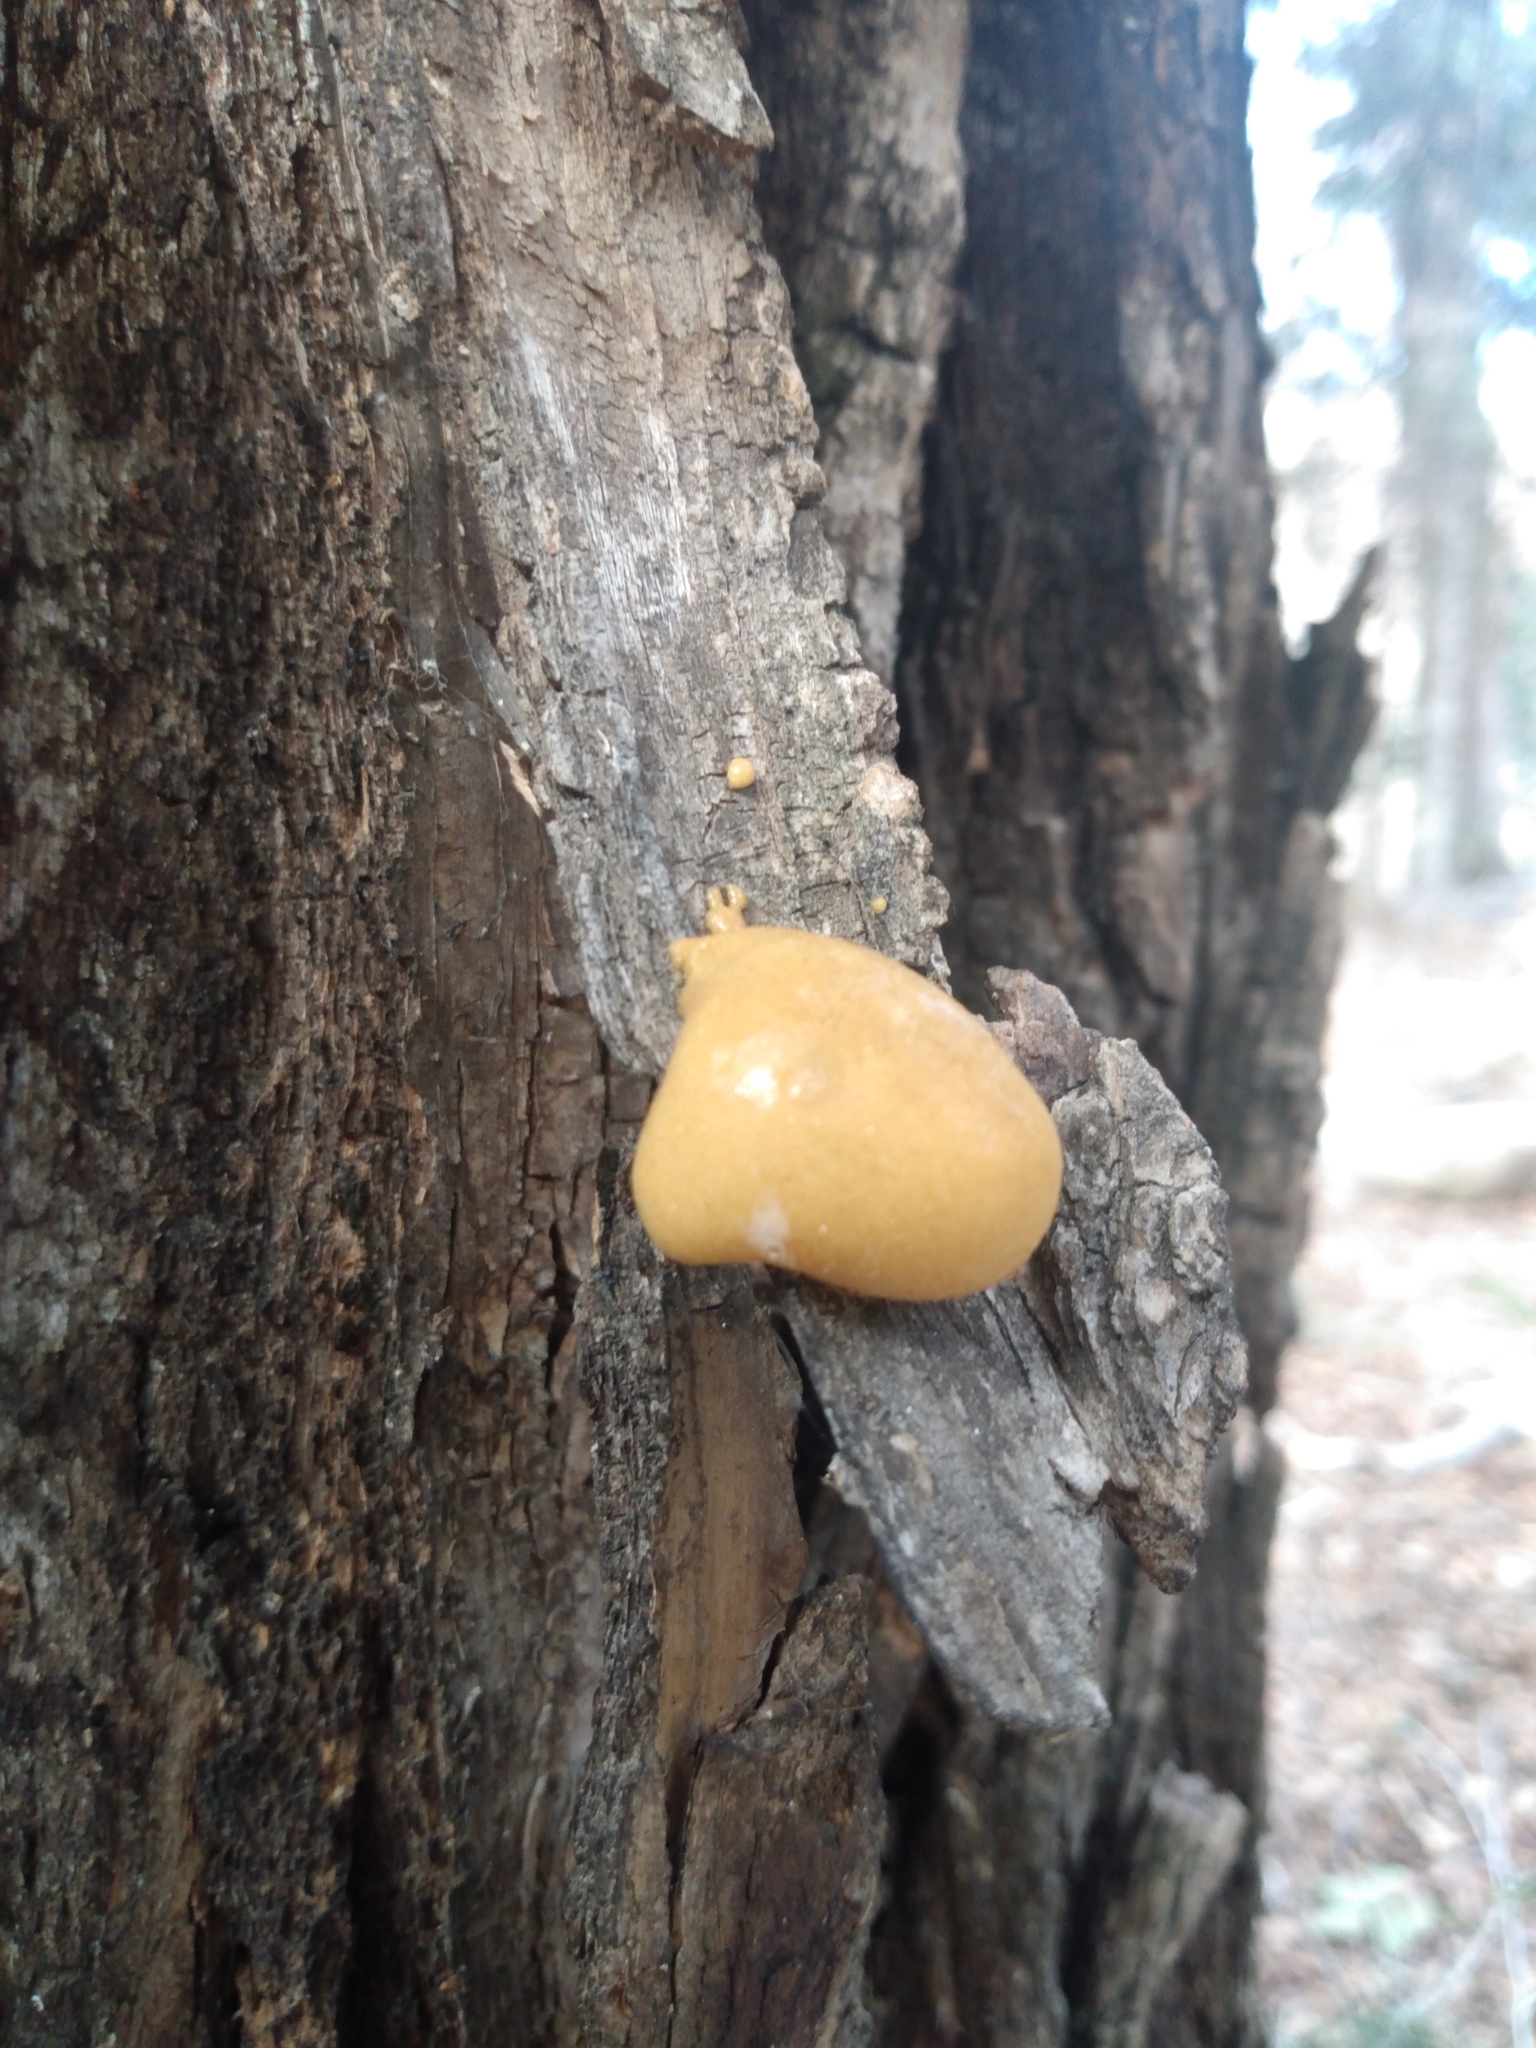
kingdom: Fungi
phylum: Basidiomycota
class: Agaricomycetes
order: Polyporales
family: Polyporaceae
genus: Cryptoporus
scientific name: Cryptoporus volvatus
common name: Veiled polypore
